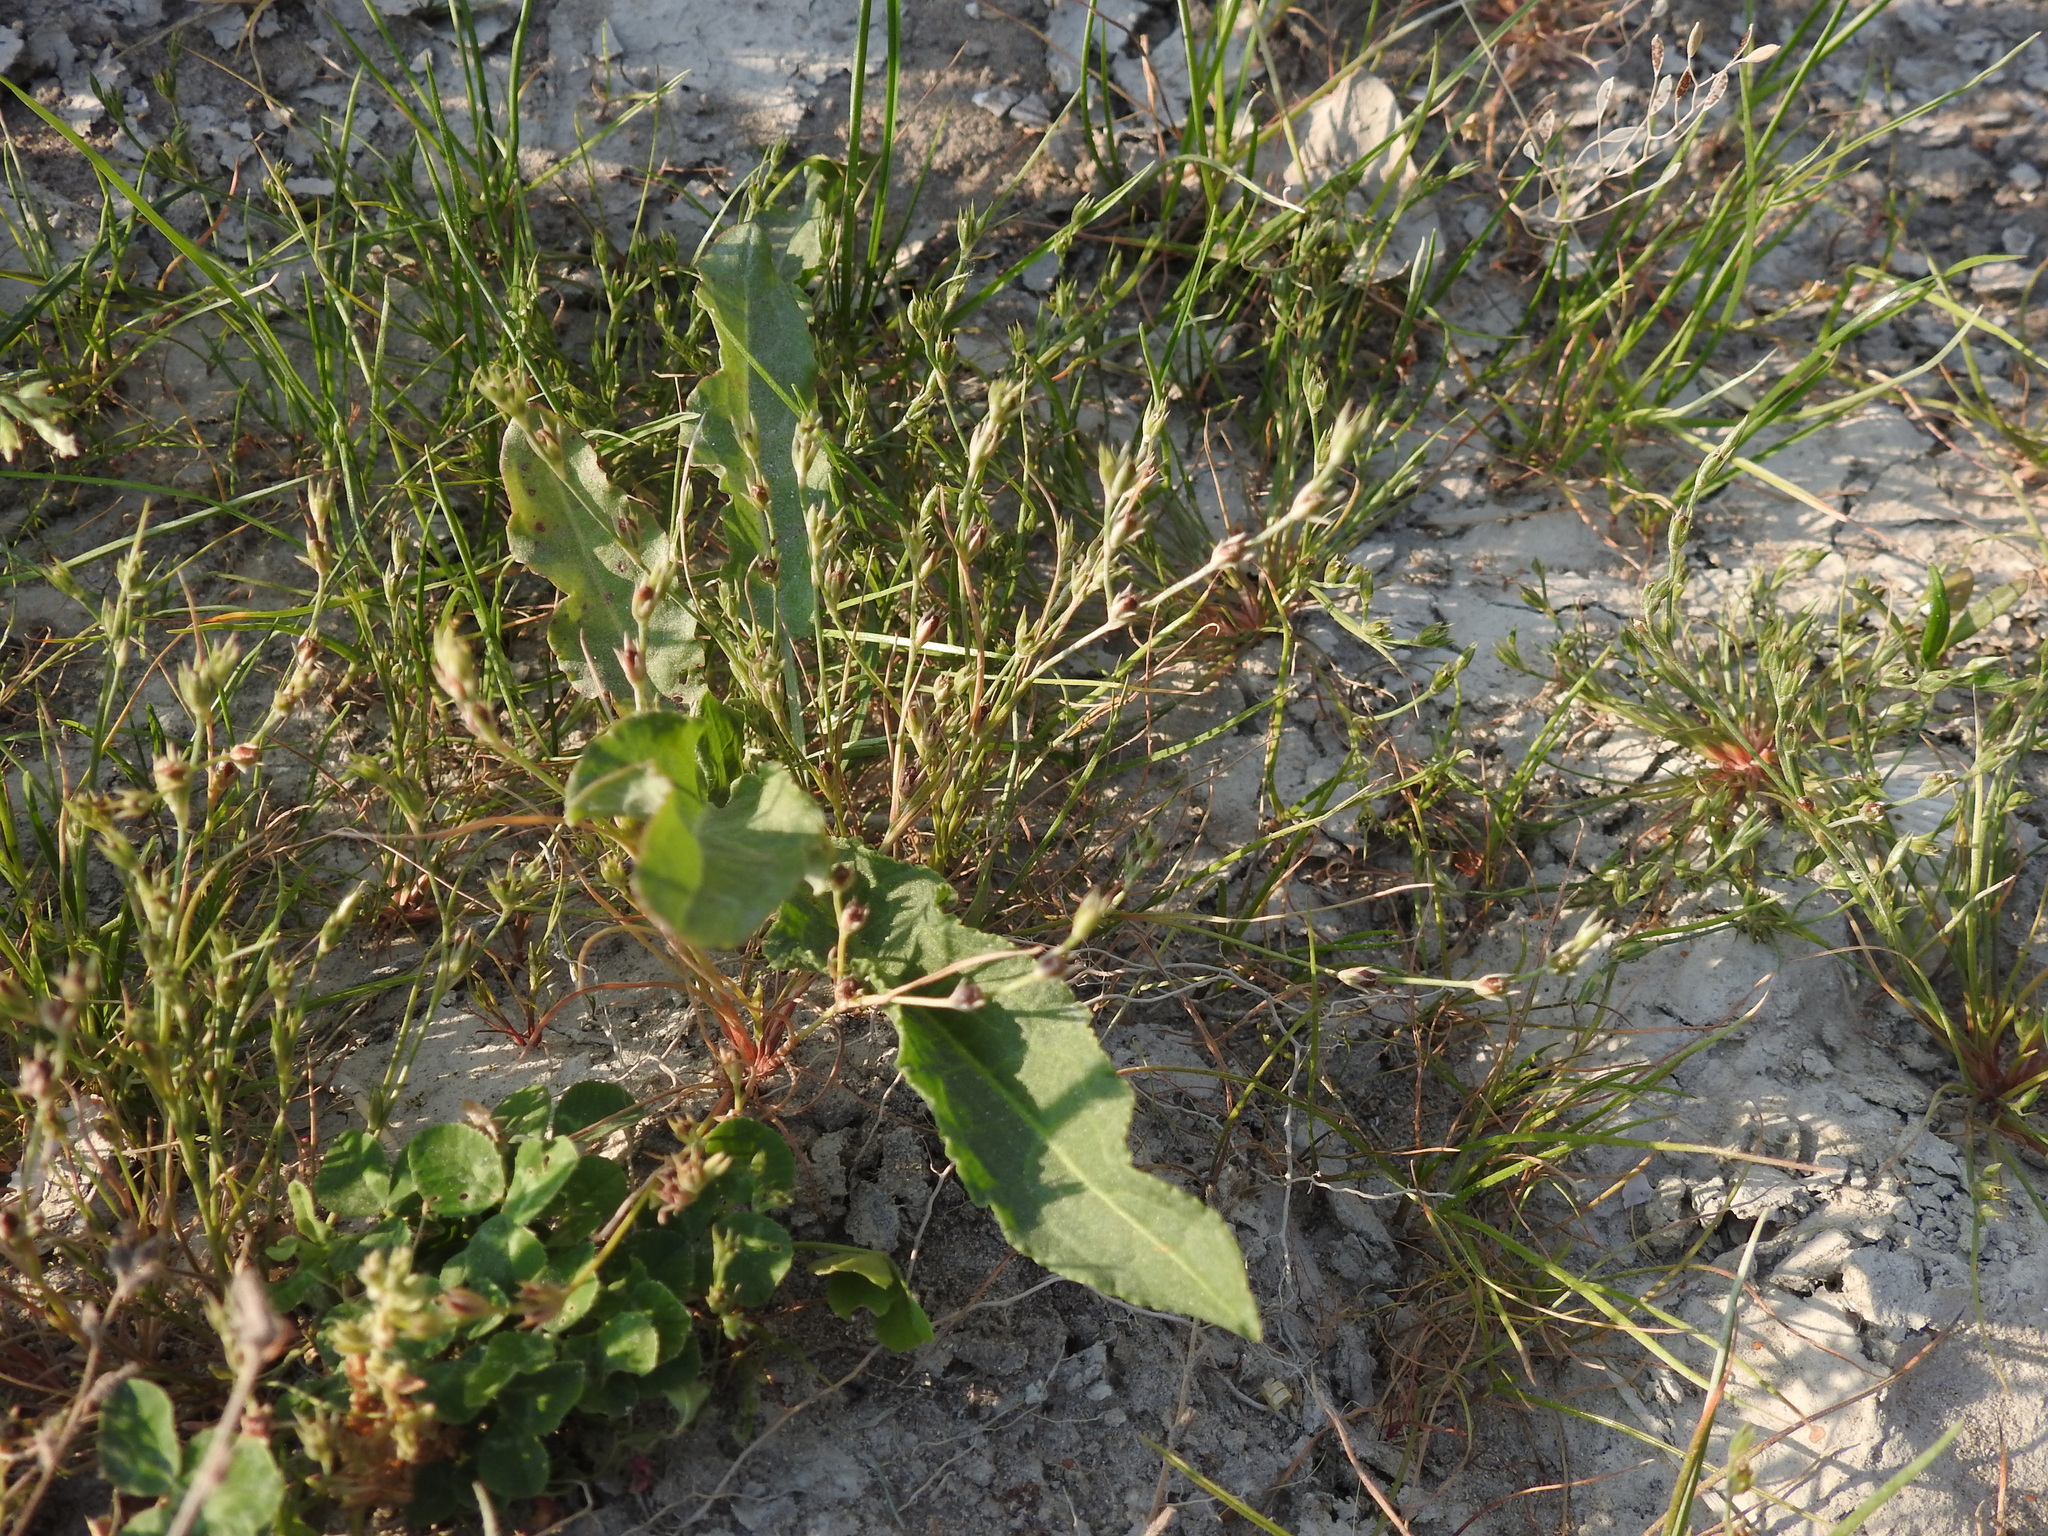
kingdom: Plantae
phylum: Tracheophyta
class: Liliopsida
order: Poales
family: Juncaceae
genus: Juncus
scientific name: Juncus bufonius
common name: Toad rush
